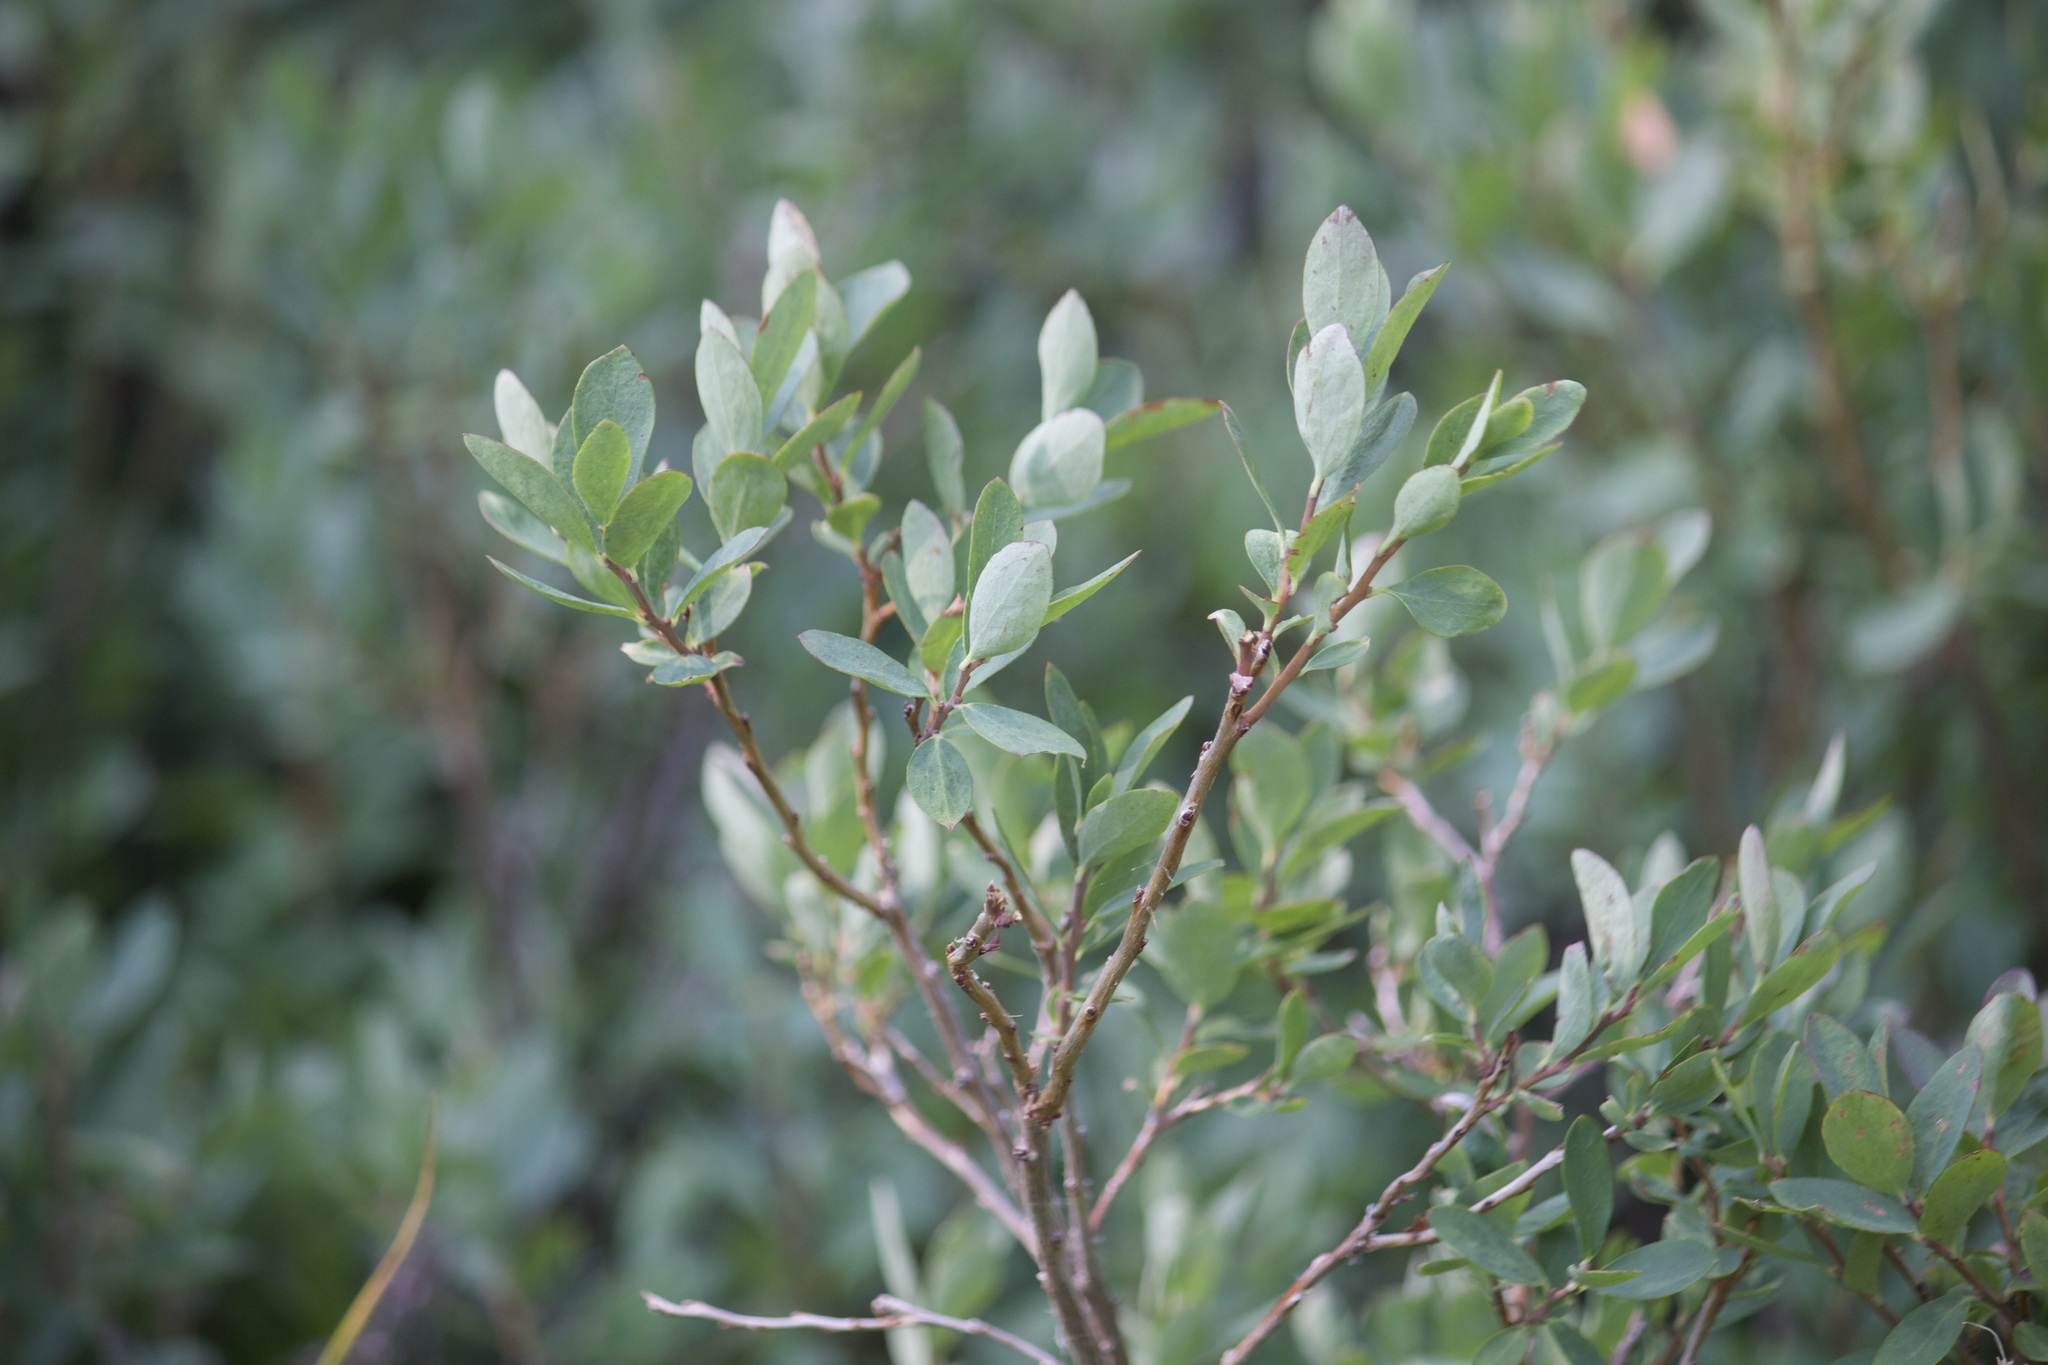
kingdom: Plantae
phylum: Tracheophyta
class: Magnoliopsida
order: Ericales
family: Ericaceae
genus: Vaccinium
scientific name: Vaccinium uliginosum
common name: Bog bilberry
